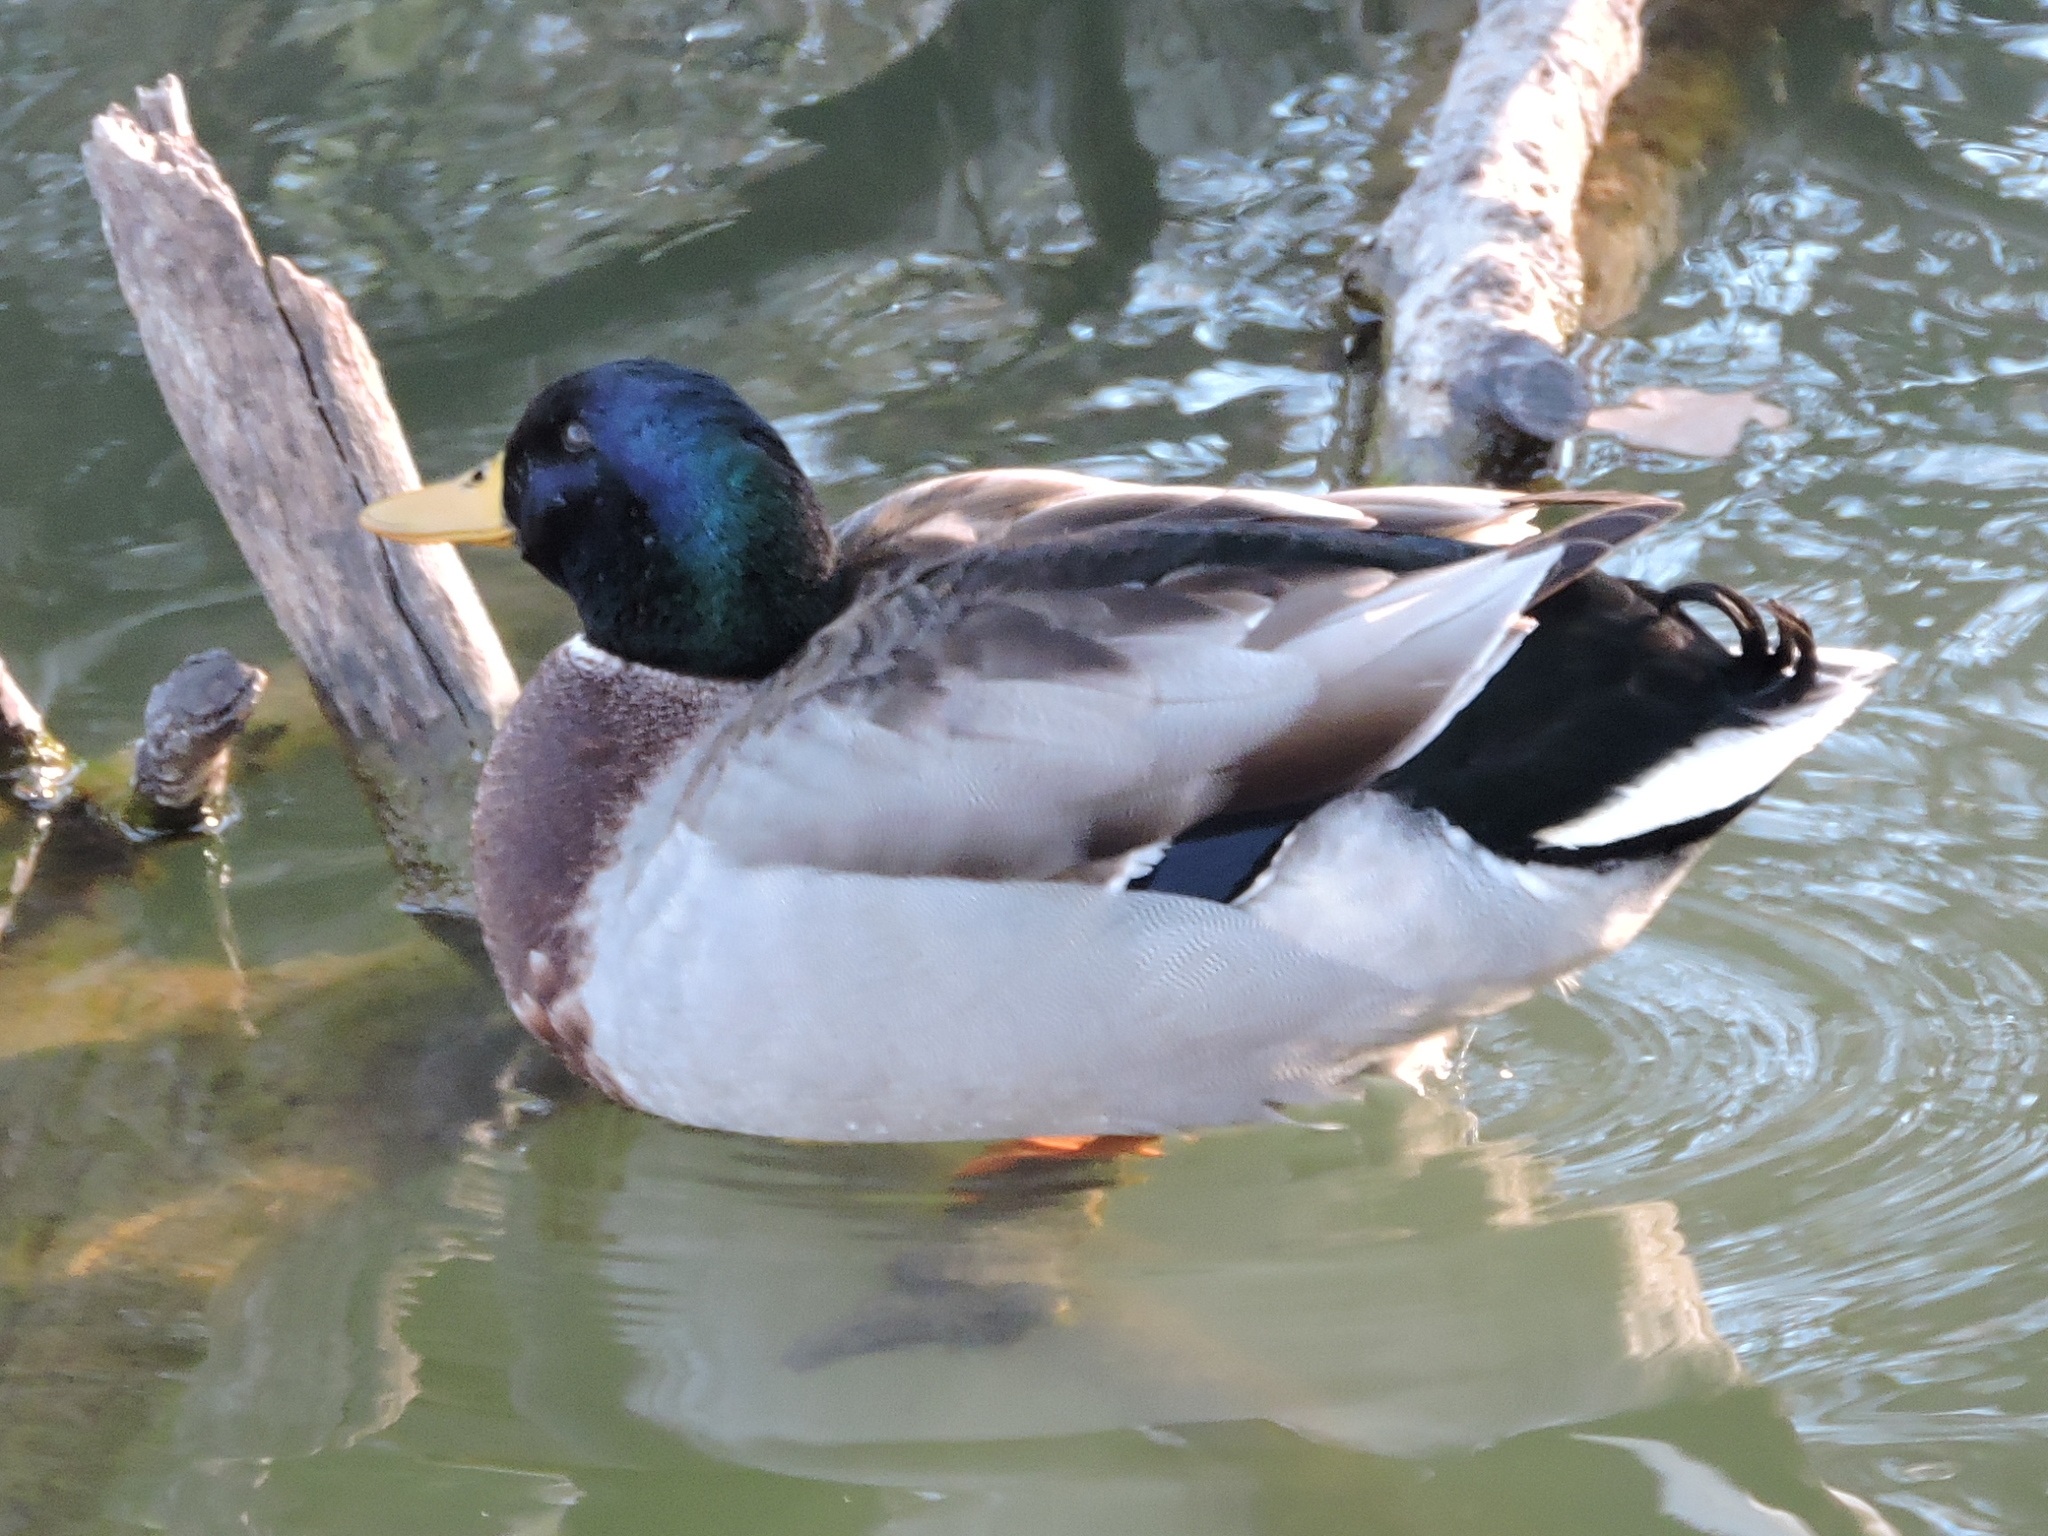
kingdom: Animalia
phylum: Chordata
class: Aves
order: Anseriformes
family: Anatidae
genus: Anas
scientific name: Anas platyrhynchos
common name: Mallard
